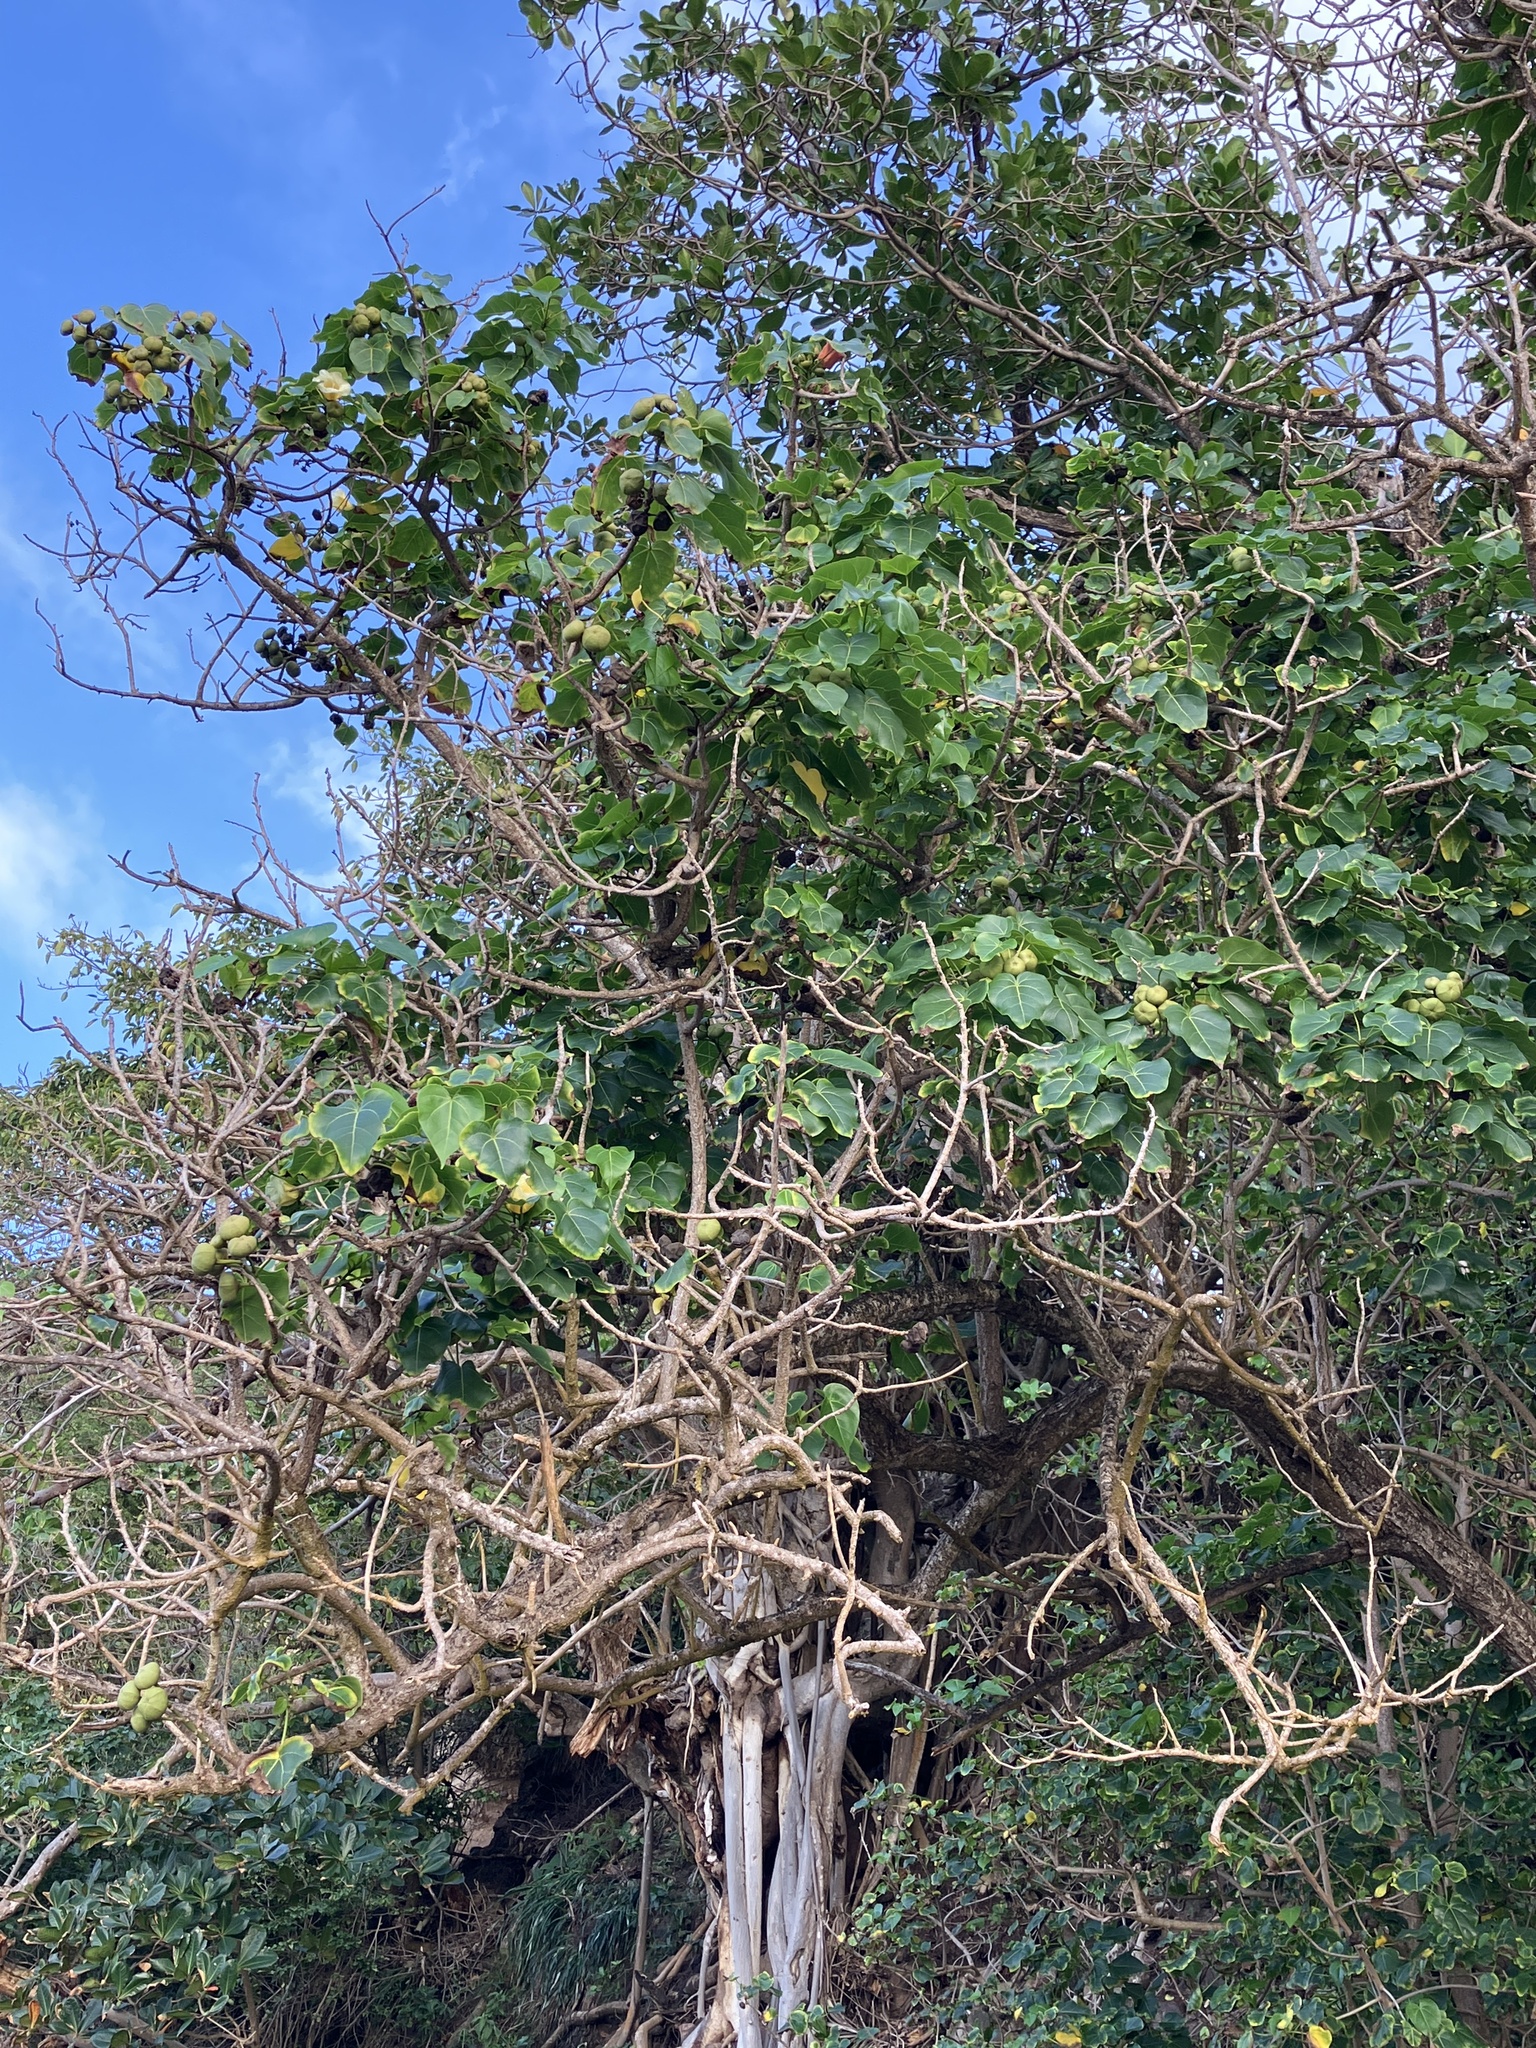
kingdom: Plantae
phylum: Tracheophyta
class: Magnoliopsida
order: Malvales
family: Malvaceae
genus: Thespesia
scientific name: Thespesia populnea
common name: Seaside mahoe
